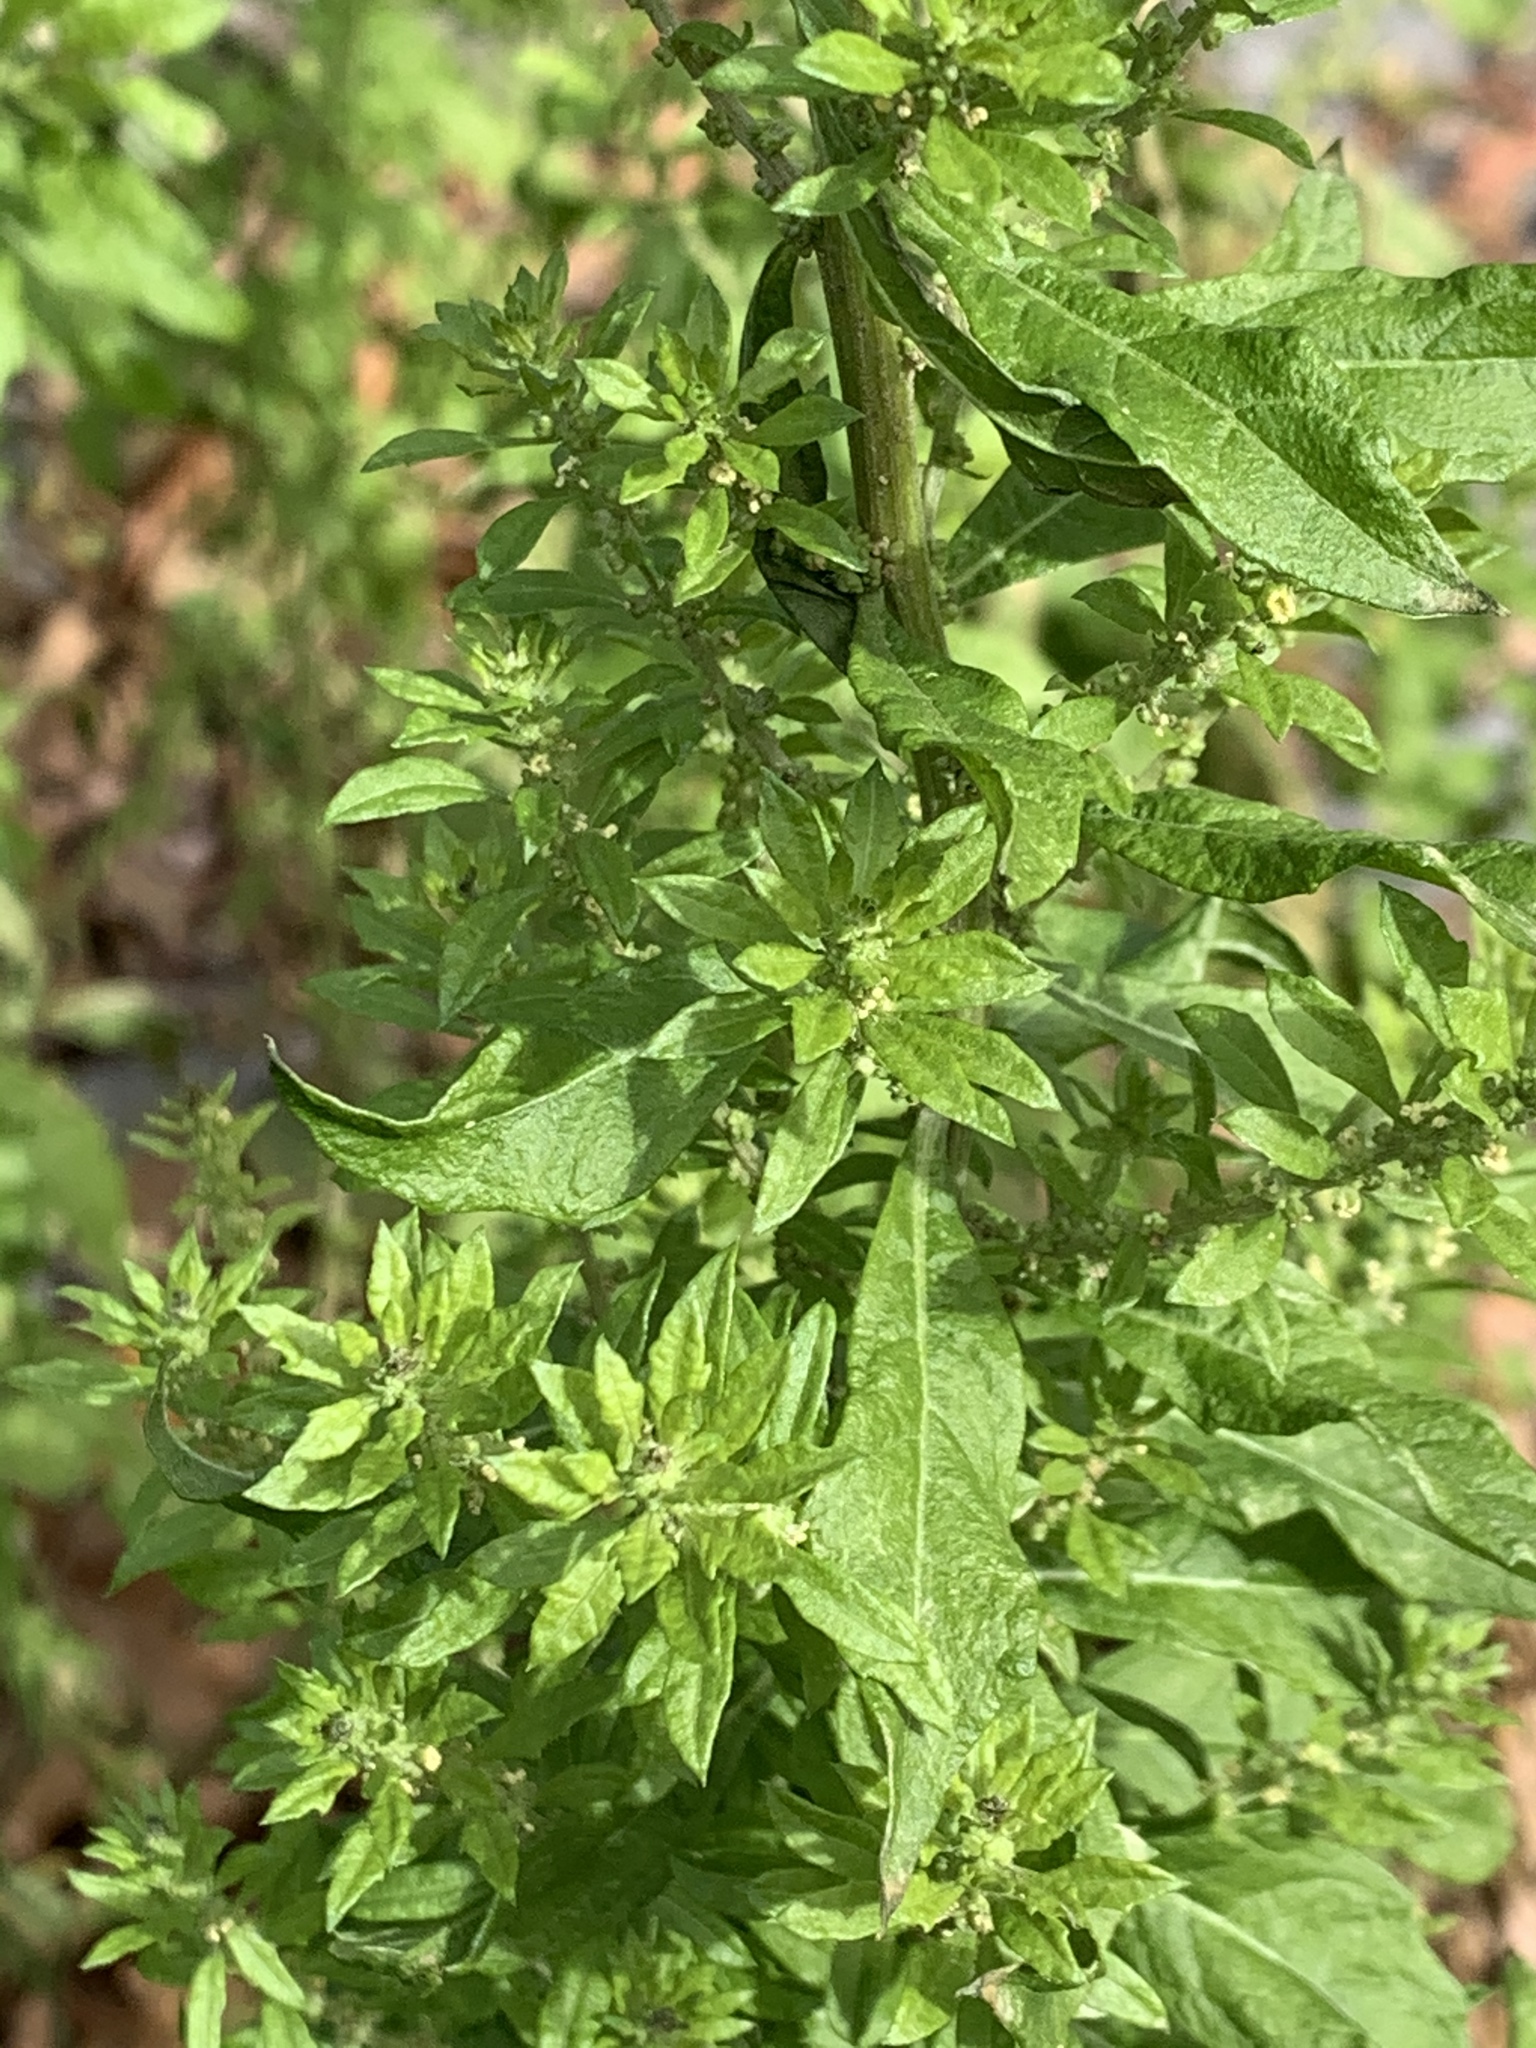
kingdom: Plantae
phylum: Tracheophyta
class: Magnoliopsida
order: Caryophyllales
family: Amaranthaceae
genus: Dysphania
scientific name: Dysphania ambrosioides
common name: Wormseed
